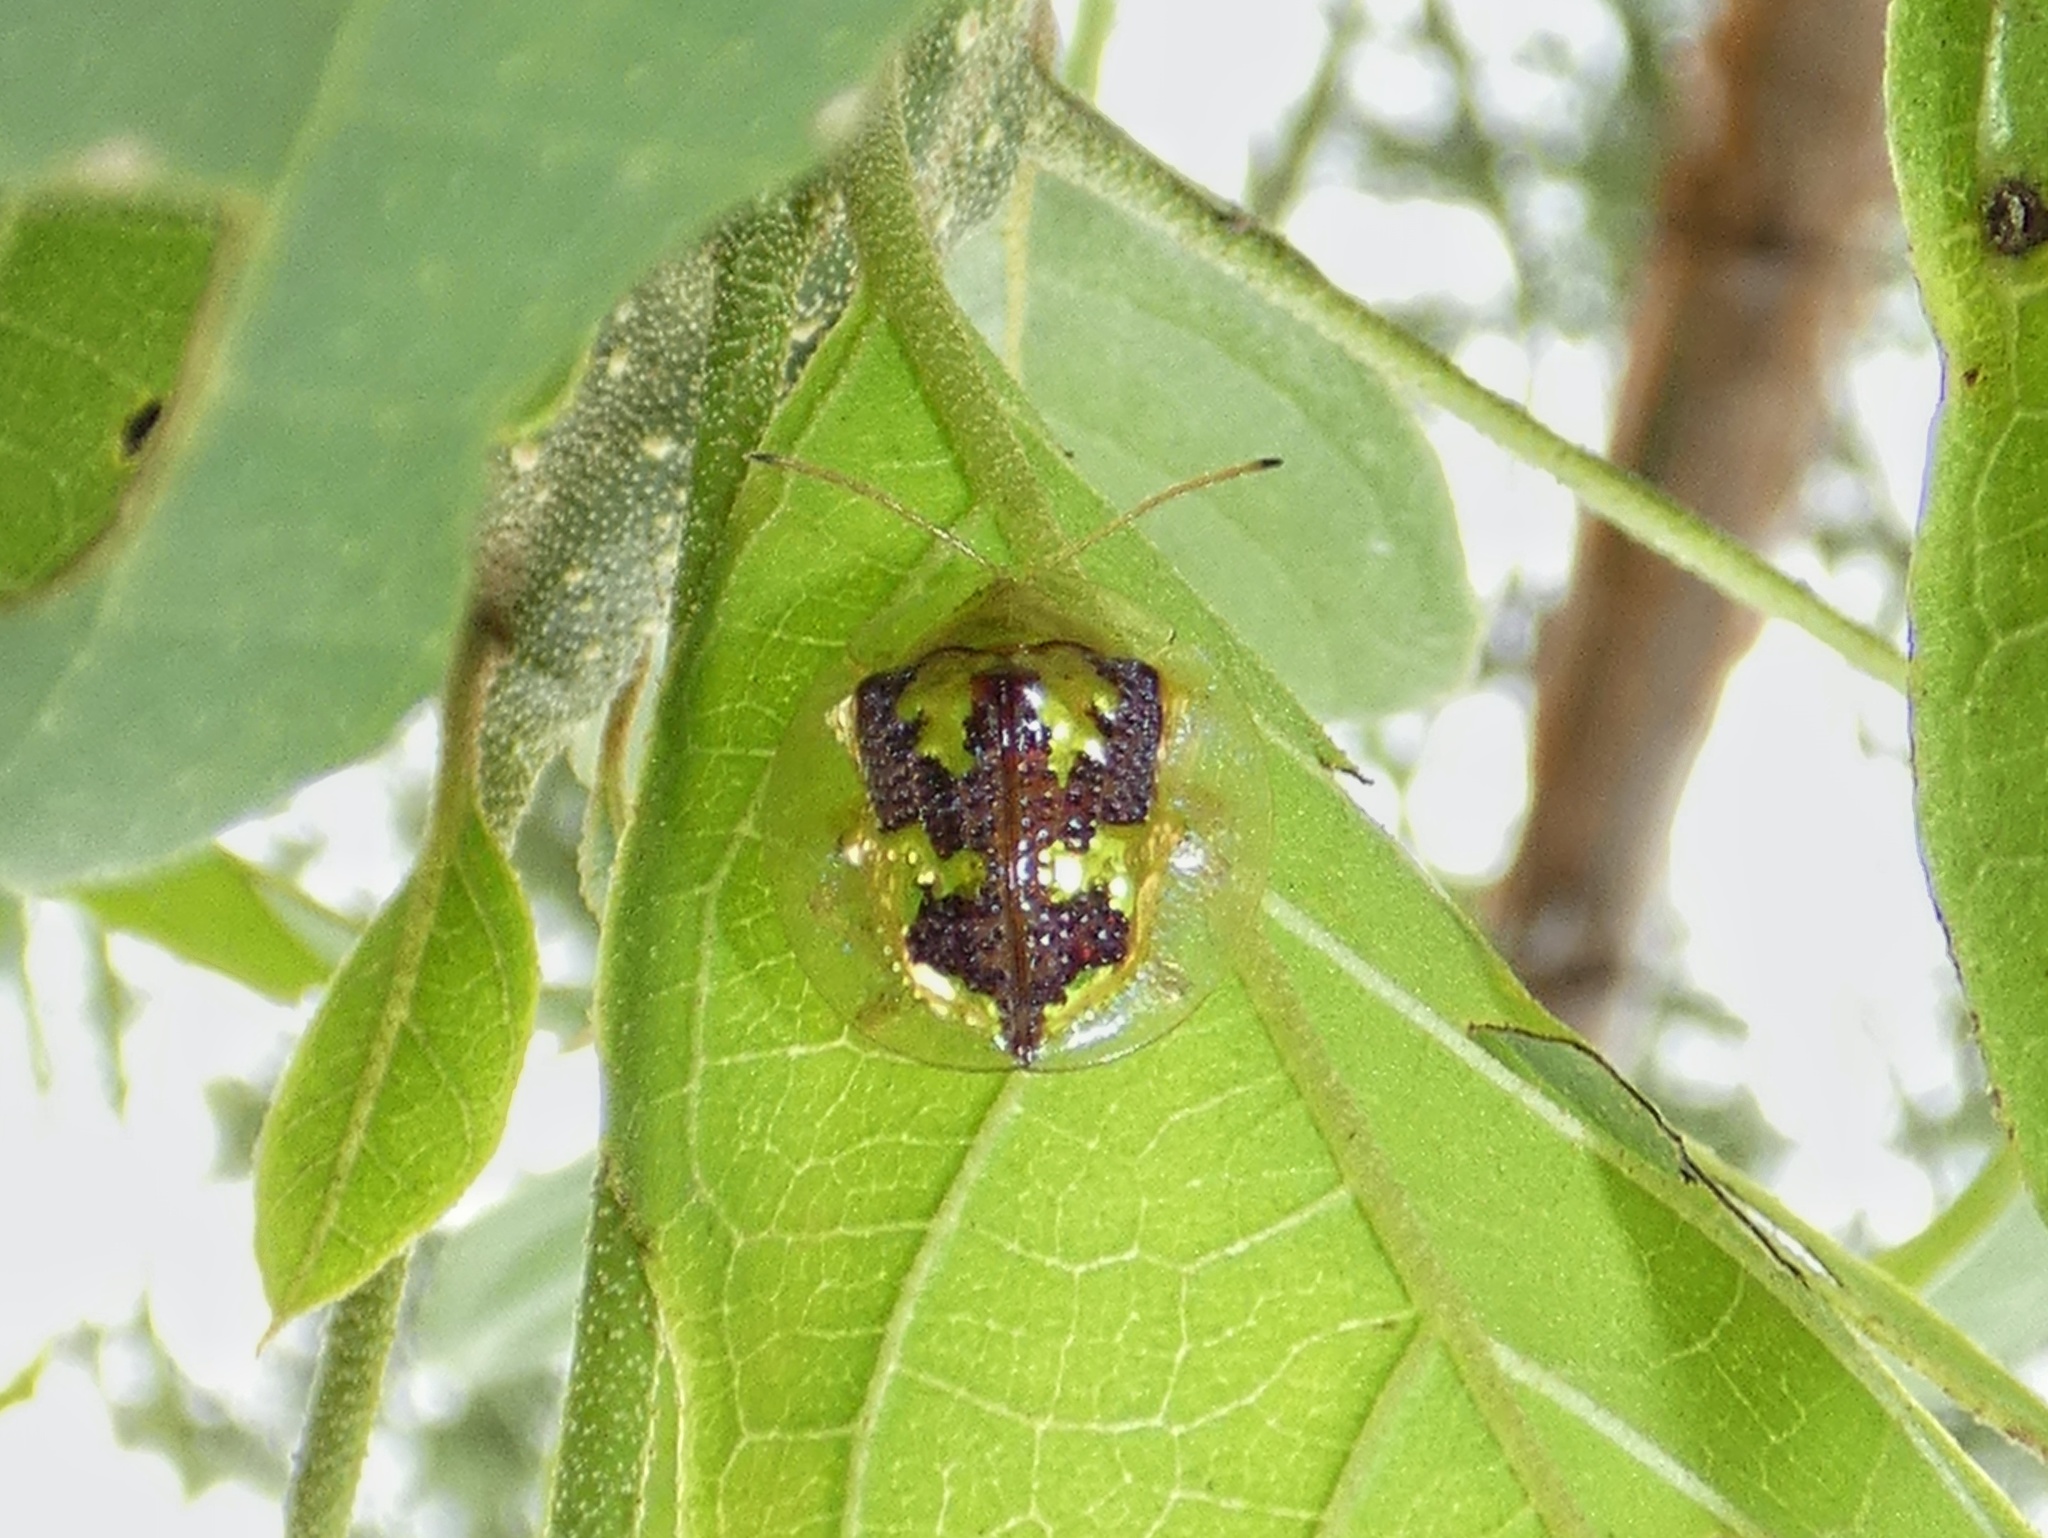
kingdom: Animalia
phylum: Arthropoda
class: Insecta
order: Coleoptera
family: Chrysomelidae
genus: Coptocycla
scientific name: Coptocycla leprosa
